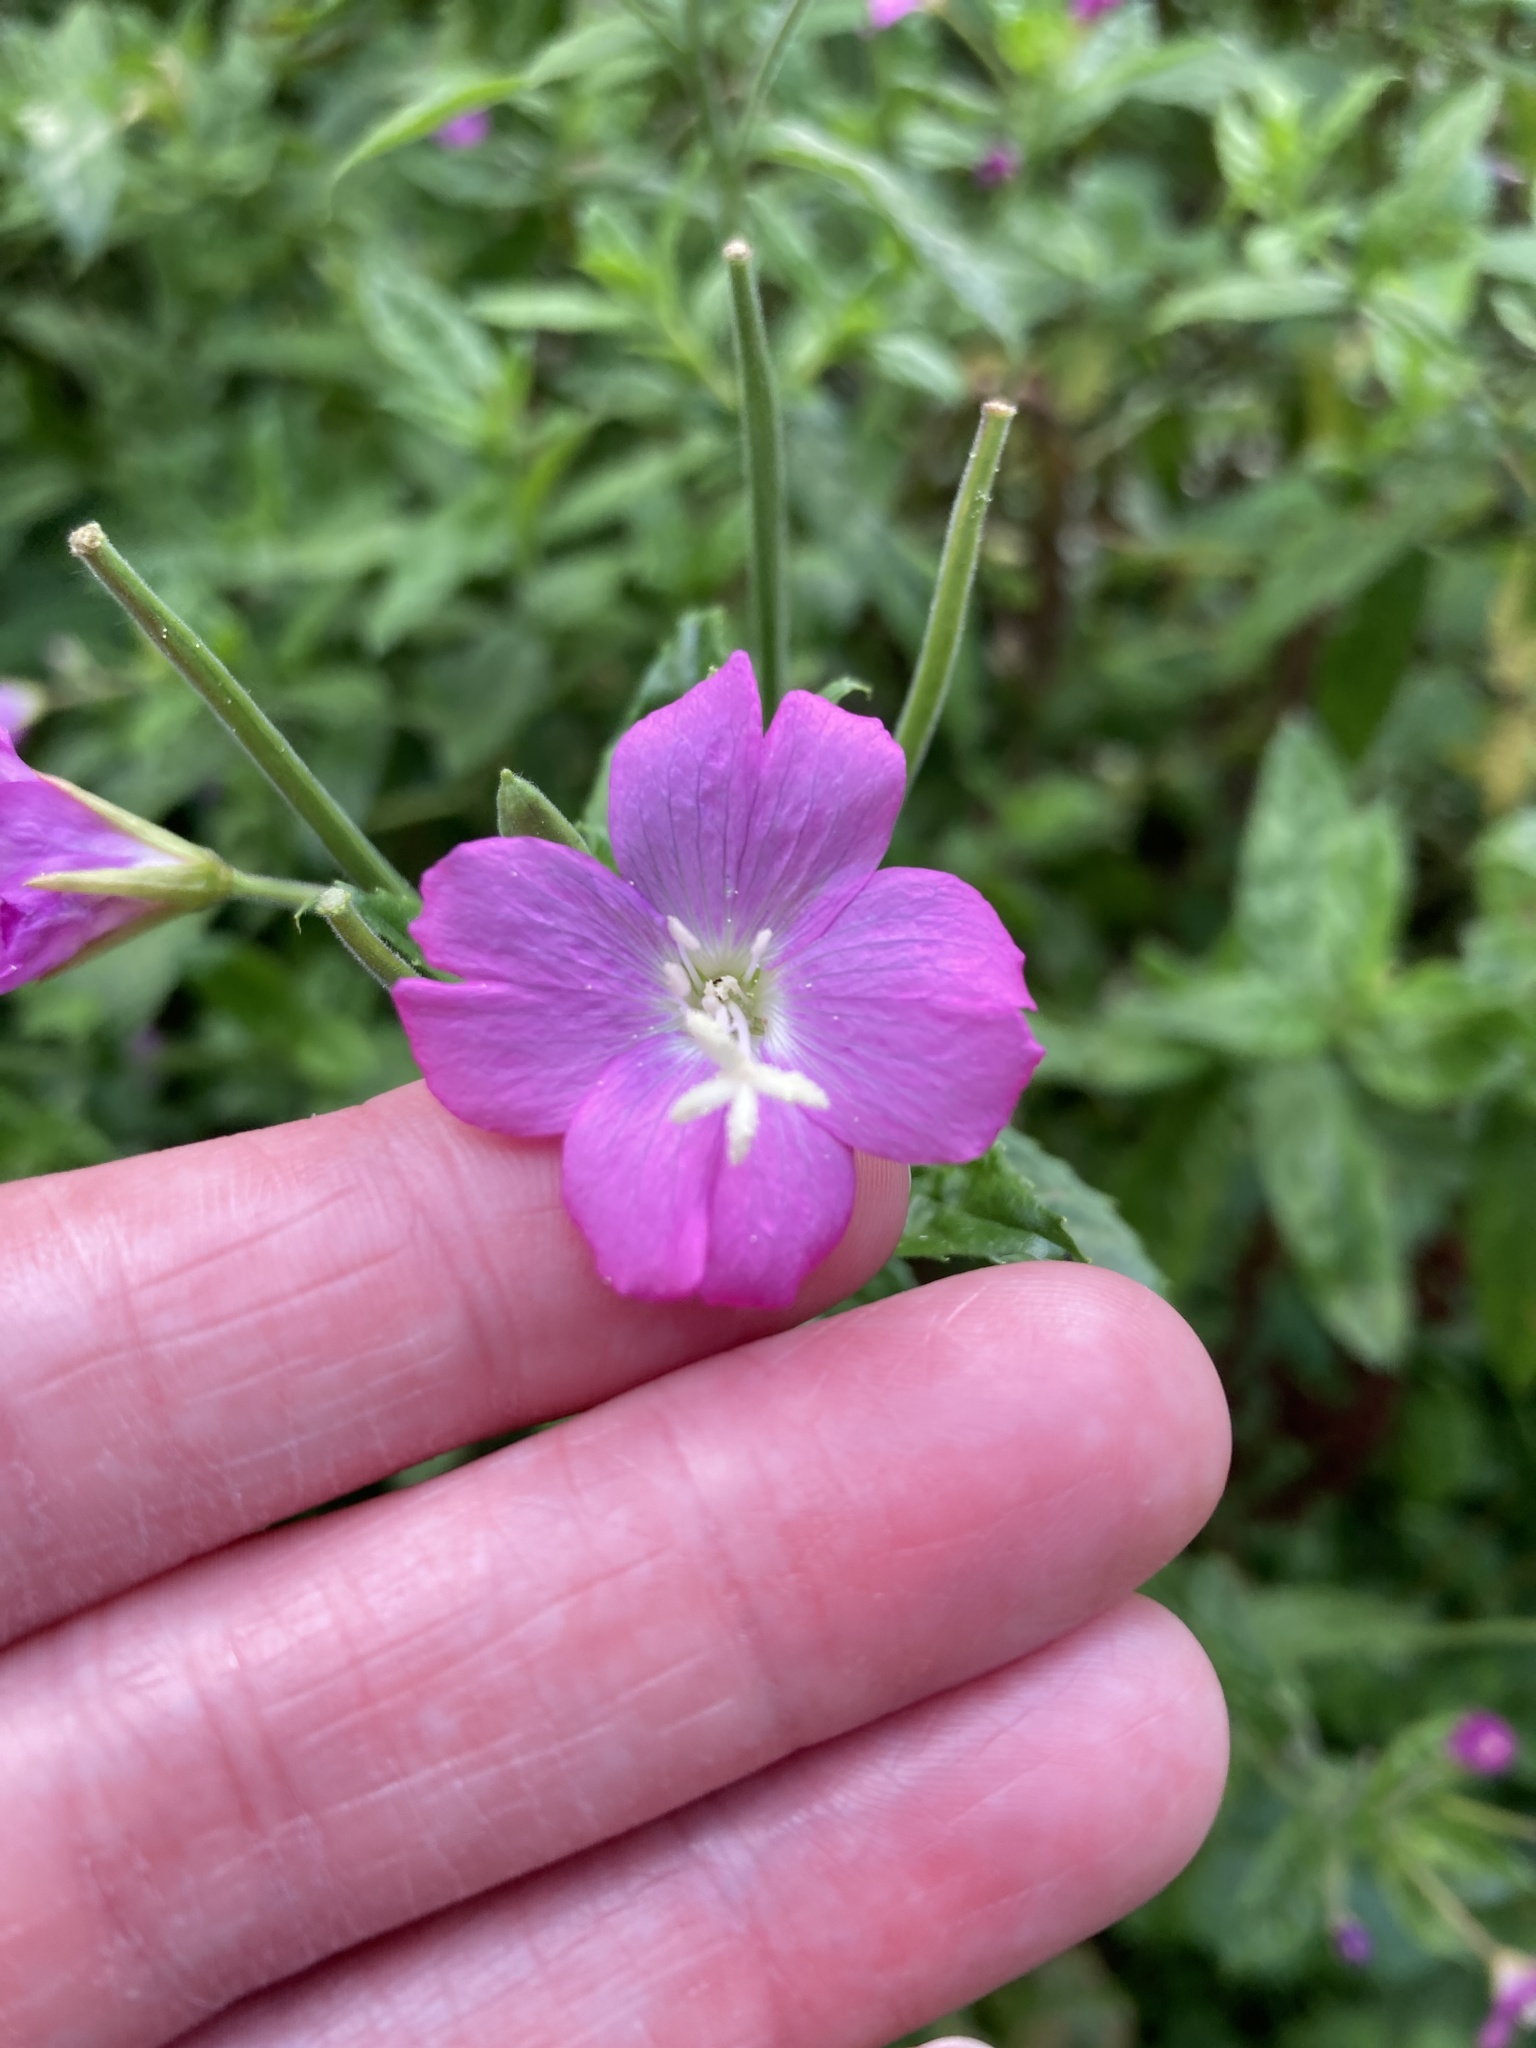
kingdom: Plantae
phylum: Tracheophyta
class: Magnoliopsida
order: Myrtales
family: Onagraceae
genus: Epilobium
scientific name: Epilobium hirsutum
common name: Great willowherb
